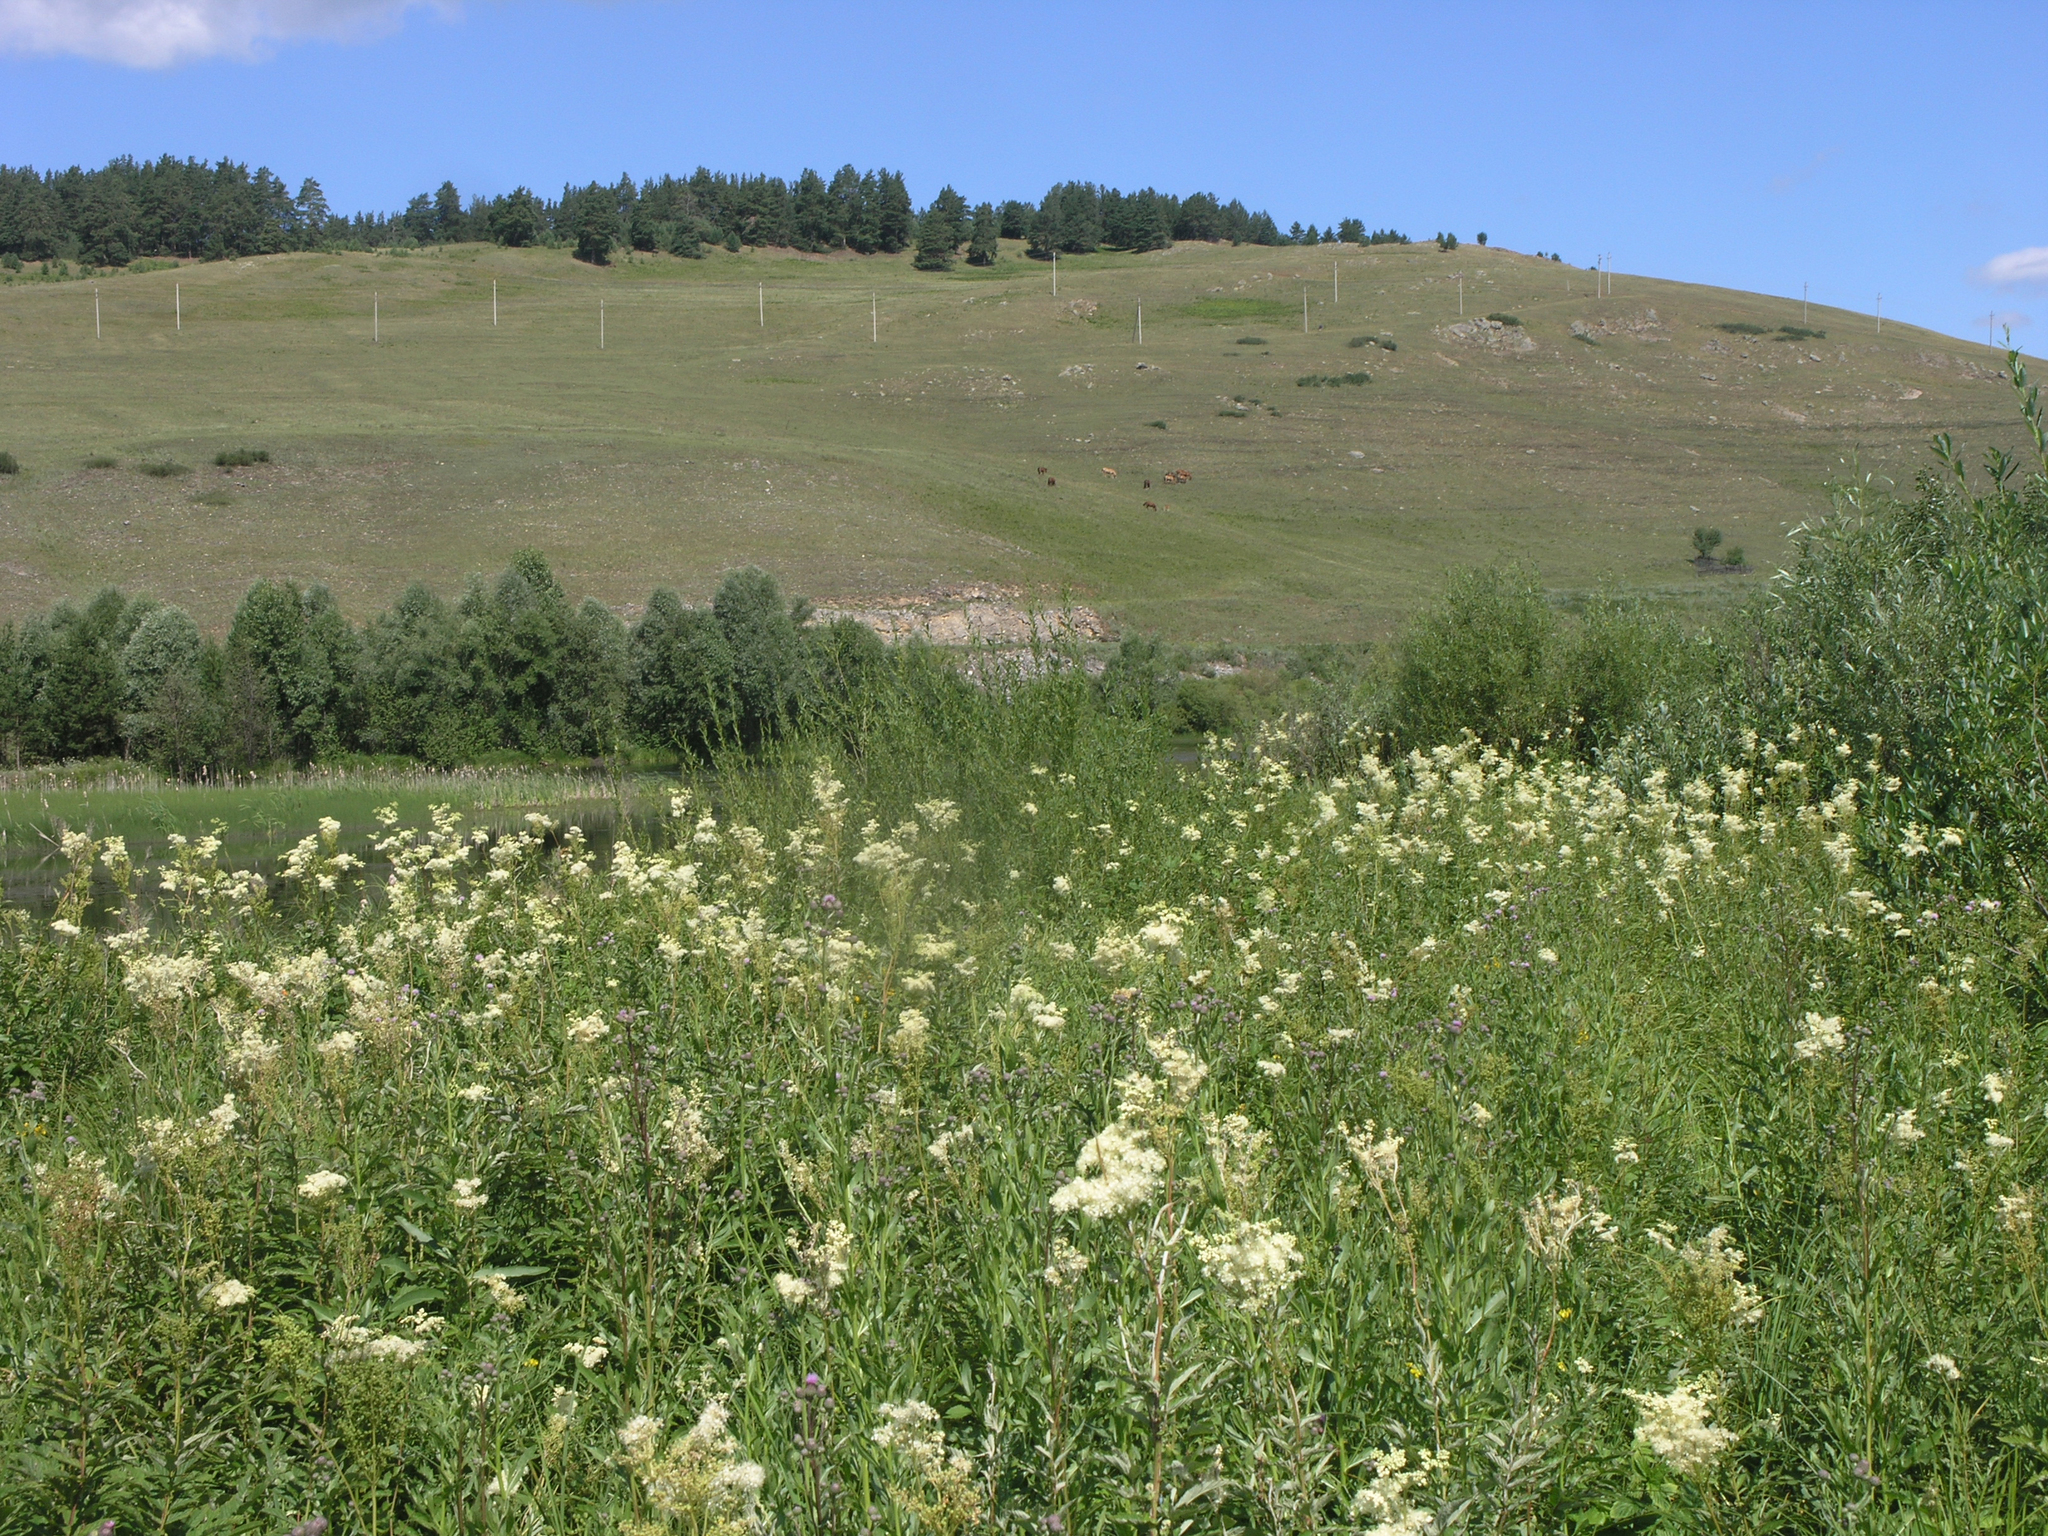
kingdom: Plantae
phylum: Tracheophyta
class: Magnoliopsida
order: Rosales
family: Rosaceae
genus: Filipendula
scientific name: Filipendula ulmaria
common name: Meadowsweet
